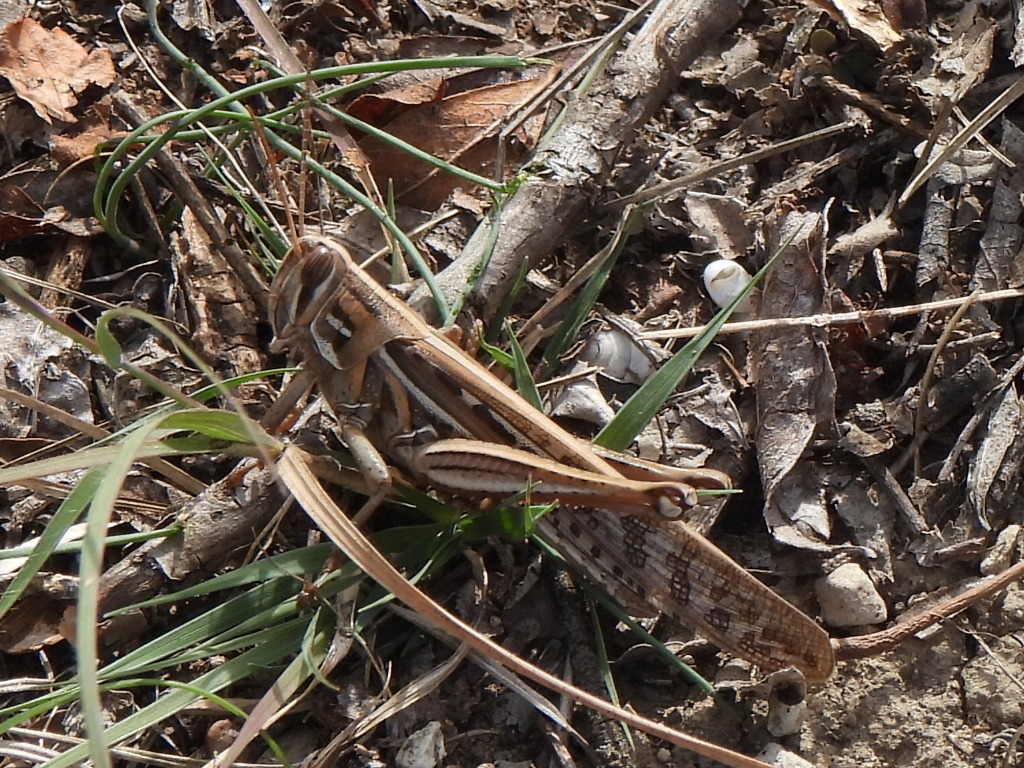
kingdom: Animalia
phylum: Arthropoda
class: Insecta
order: Orthoptera
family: Acrididae
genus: Schistocerca
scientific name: Schistocerca americana
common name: American bird locust
